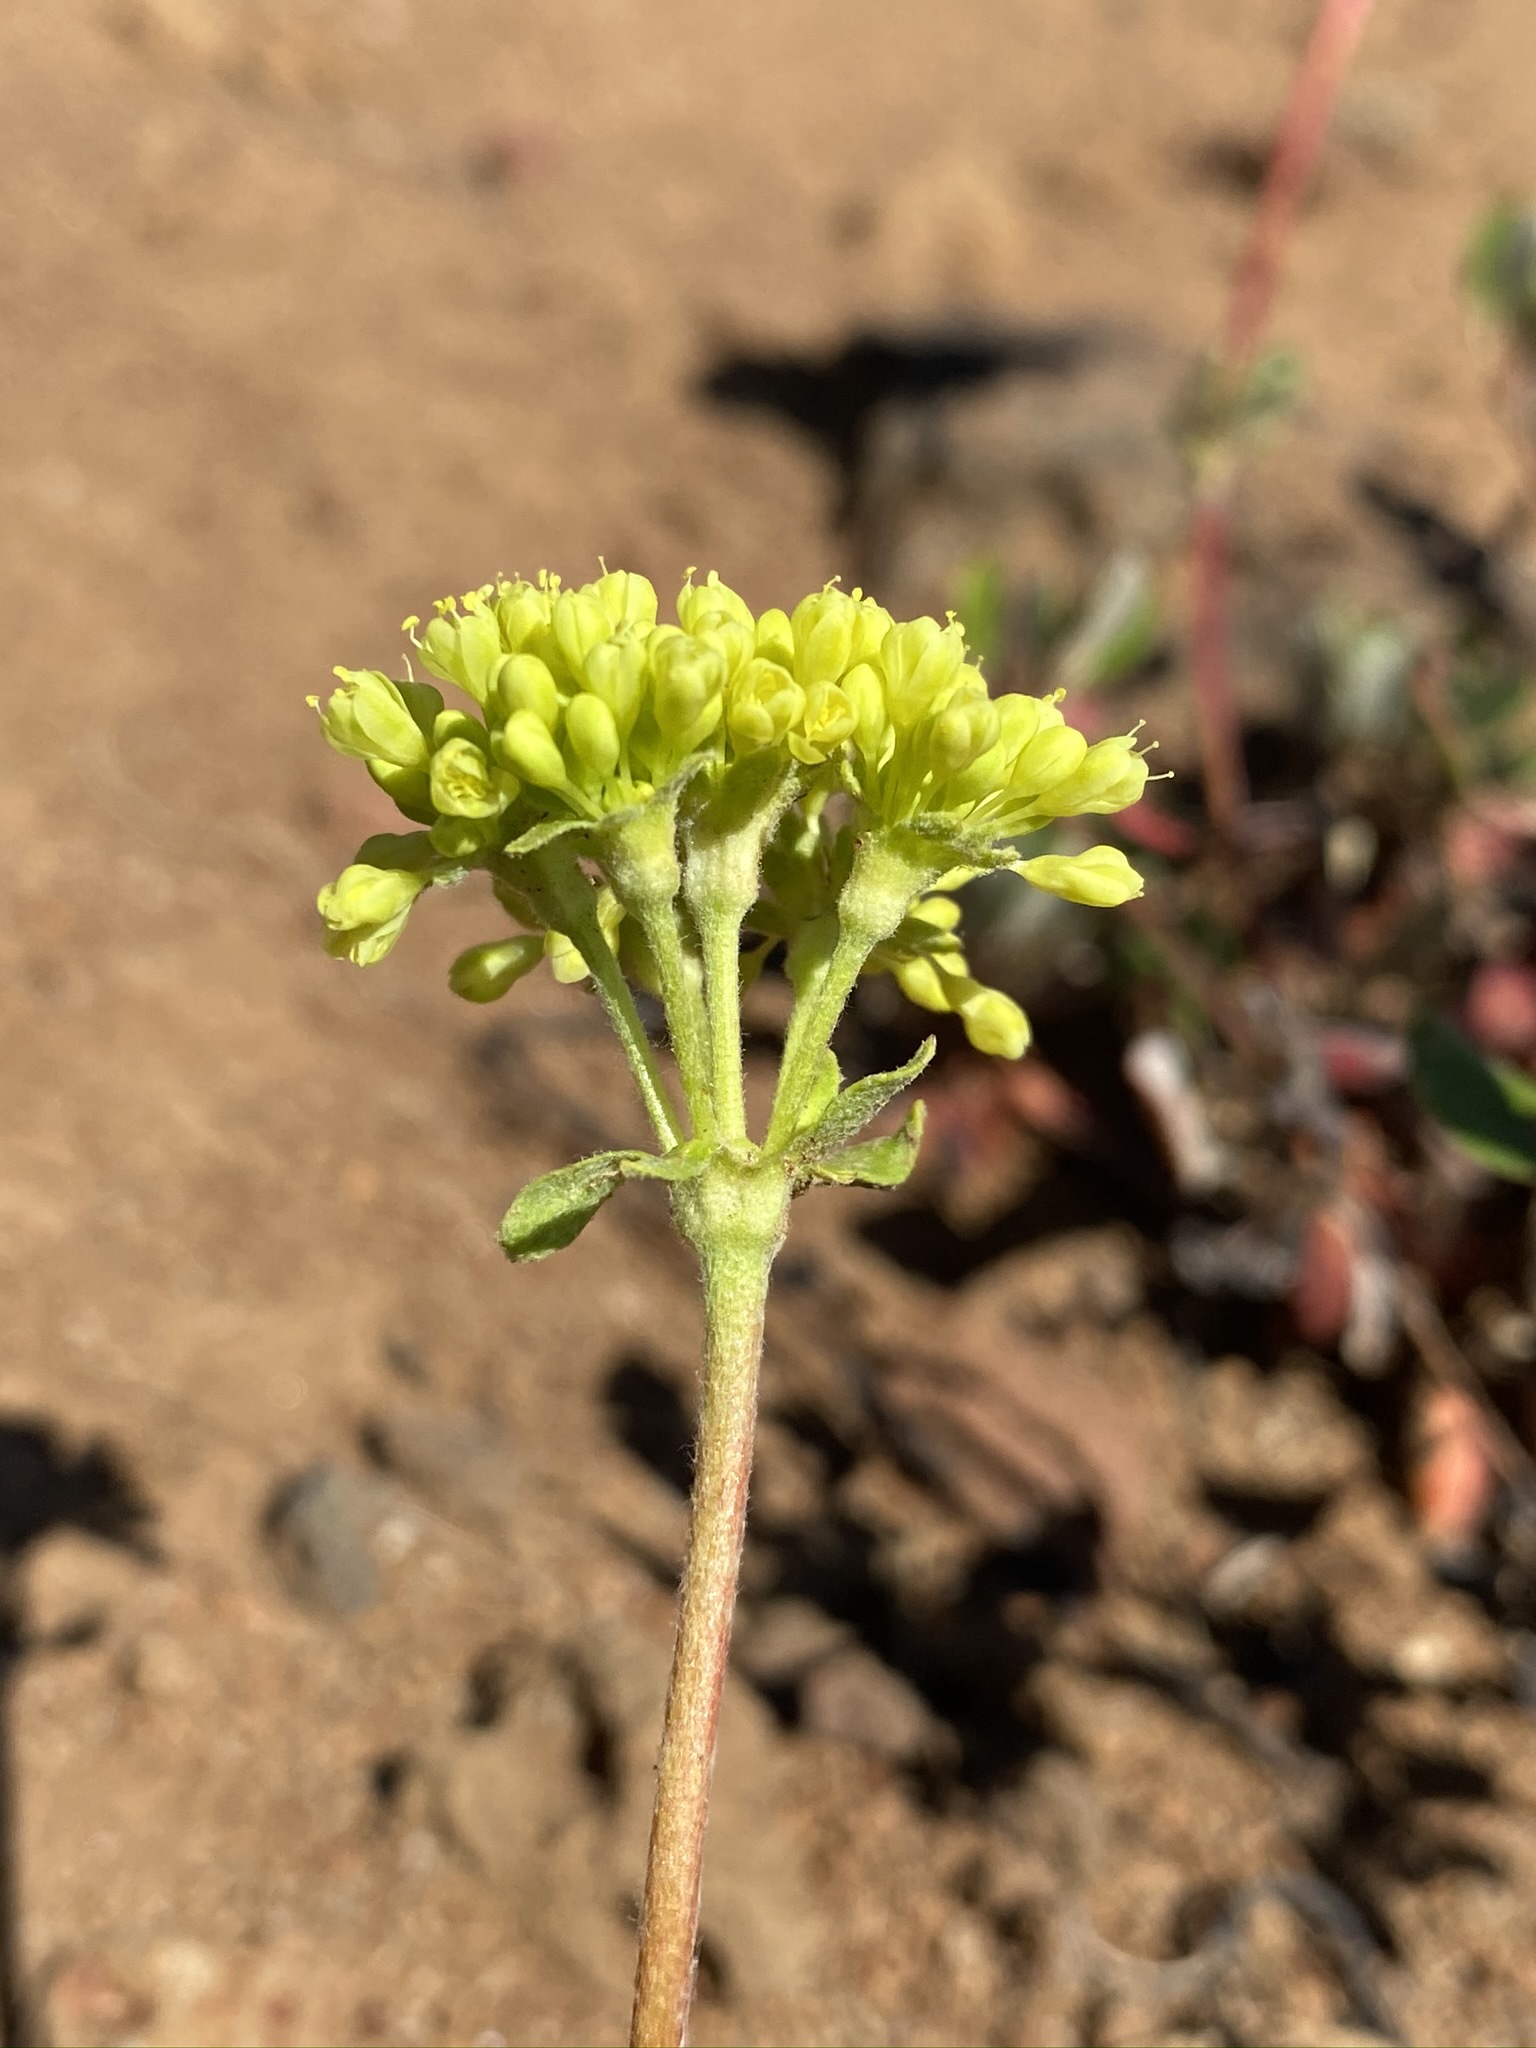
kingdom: Plantae
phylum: Tracheophyta
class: Magnoliopsida
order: Caryophyllales
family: Polygonaceae
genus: Eriogonum
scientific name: Eriogonum umbellatum
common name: Sulfur-buckwheat
